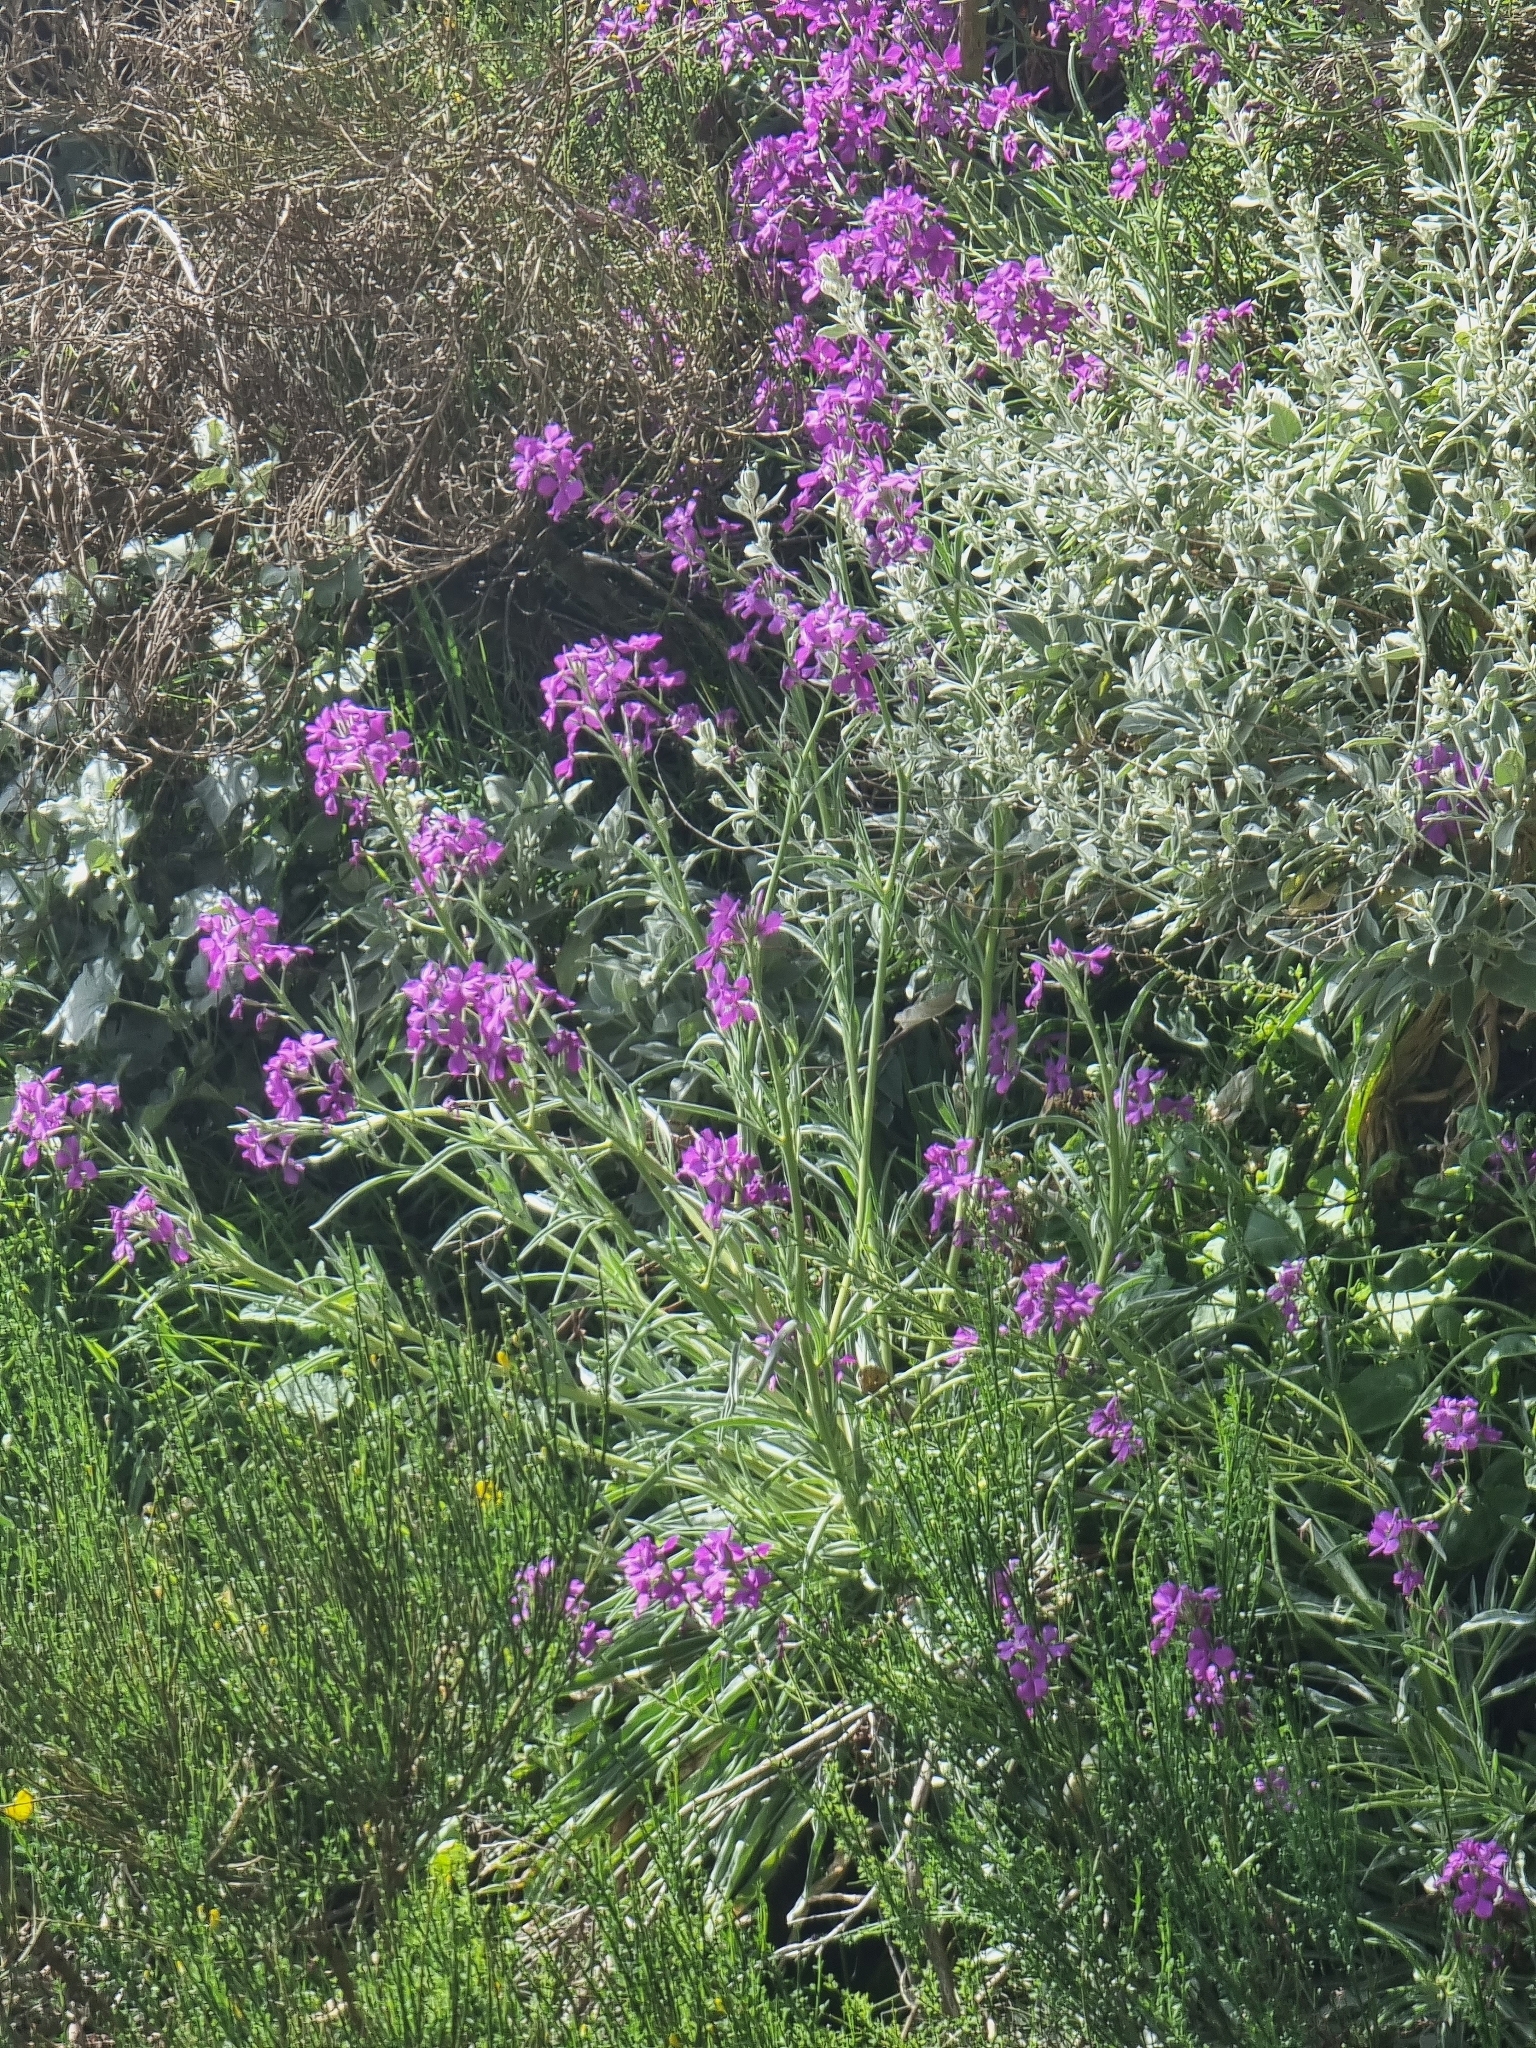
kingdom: Plantae
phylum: Tracheophyta
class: Magnoliopsida
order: Brassicales
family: Brassicaceae
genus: Matthiola
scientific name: Matthiola maderensis
